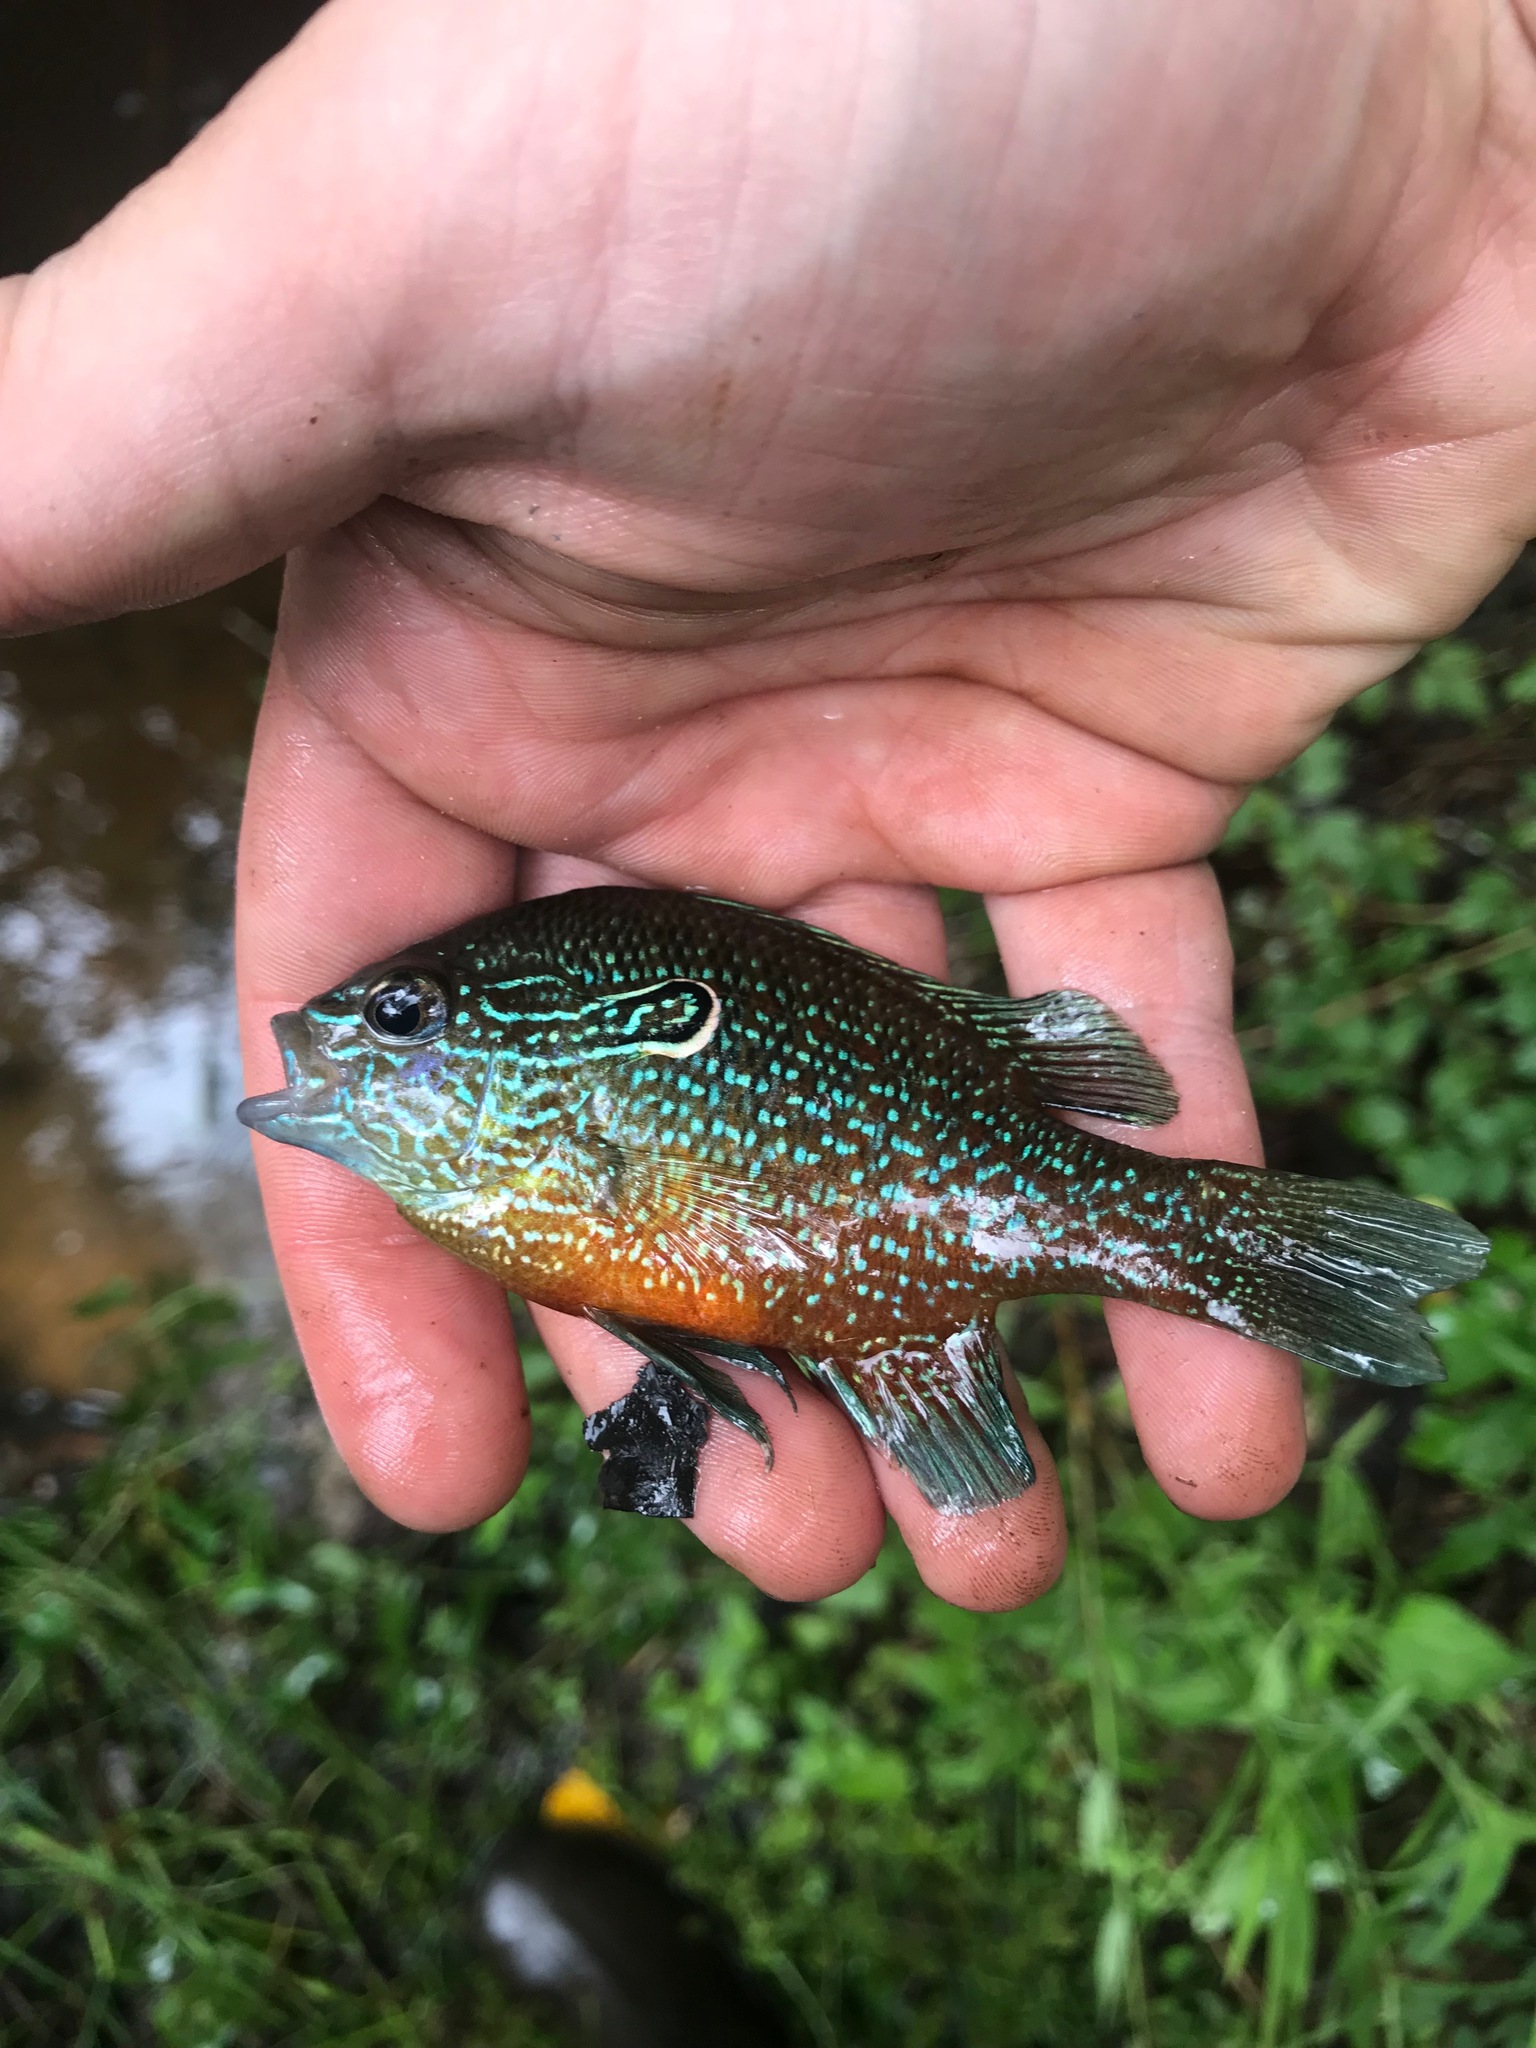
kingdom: Animalia
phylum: Chordata
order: Perciformes
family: Centrarchidae
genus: Lepomis
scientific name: Lepomis marginatus
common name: Dollar sunfish
